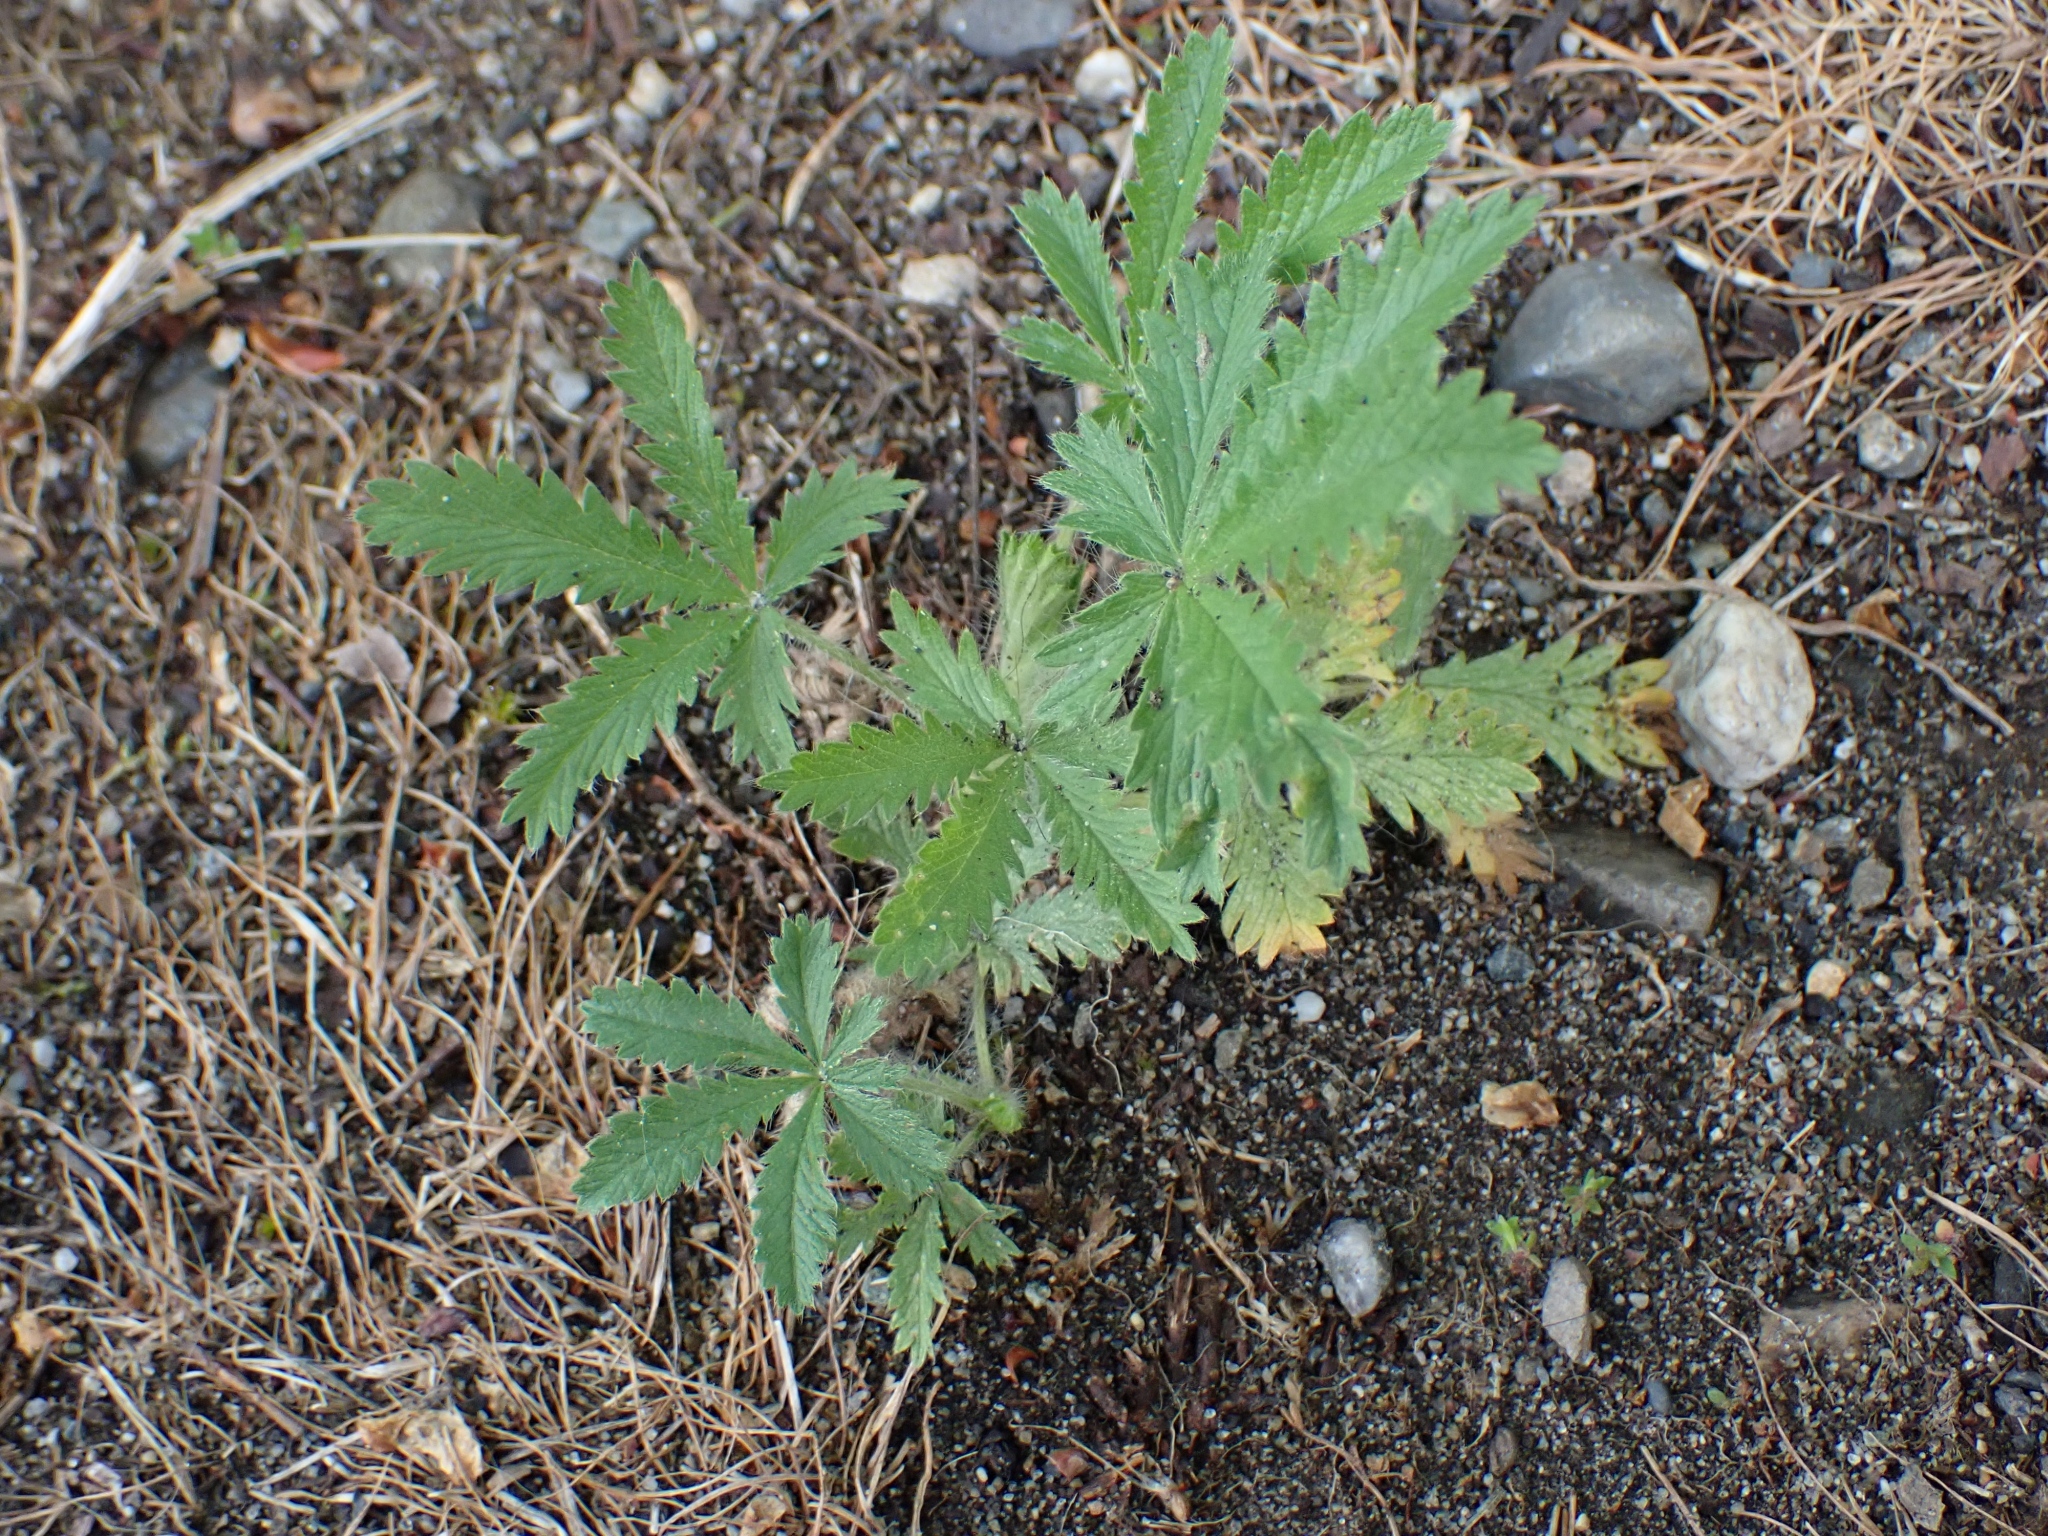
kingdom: Plantae
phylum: Tracheophyta
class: Magnoliopsida
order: Rosales
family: Rosaceae
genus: Potentilla
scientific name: Potentilla recta
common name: Sulphur cinquefoil
